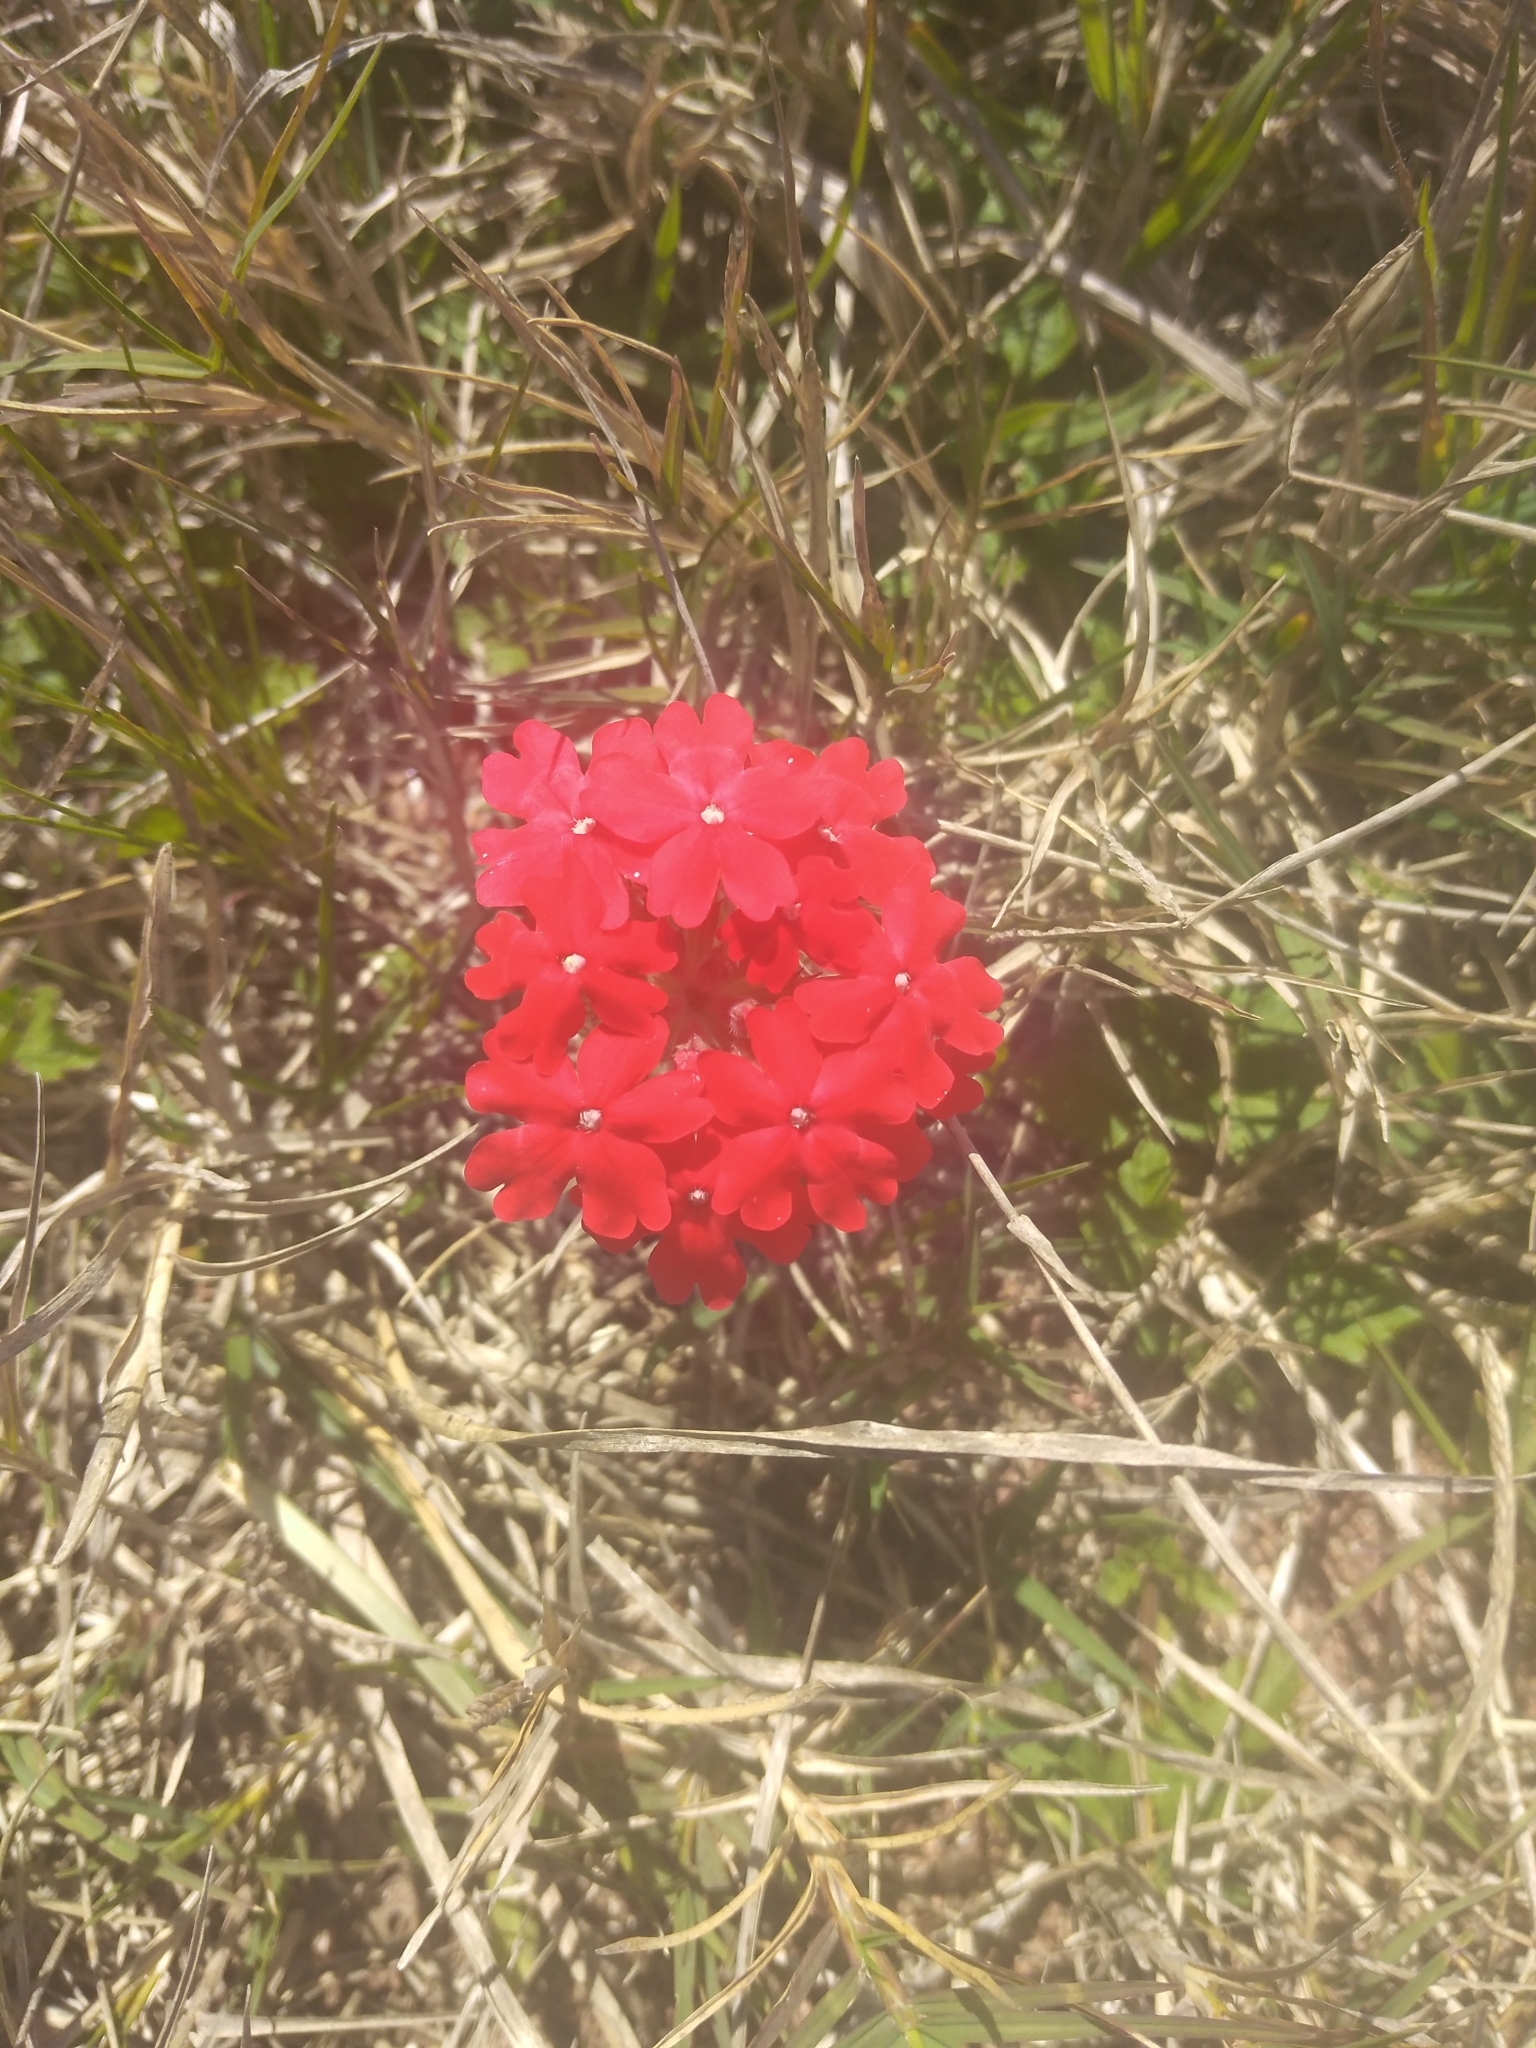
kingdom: Plantae
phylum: Tracheophyta
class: Magnoliopsida
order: Lamiales
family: Verbenaceae
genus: Verbena
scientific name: Verbena peruviana
